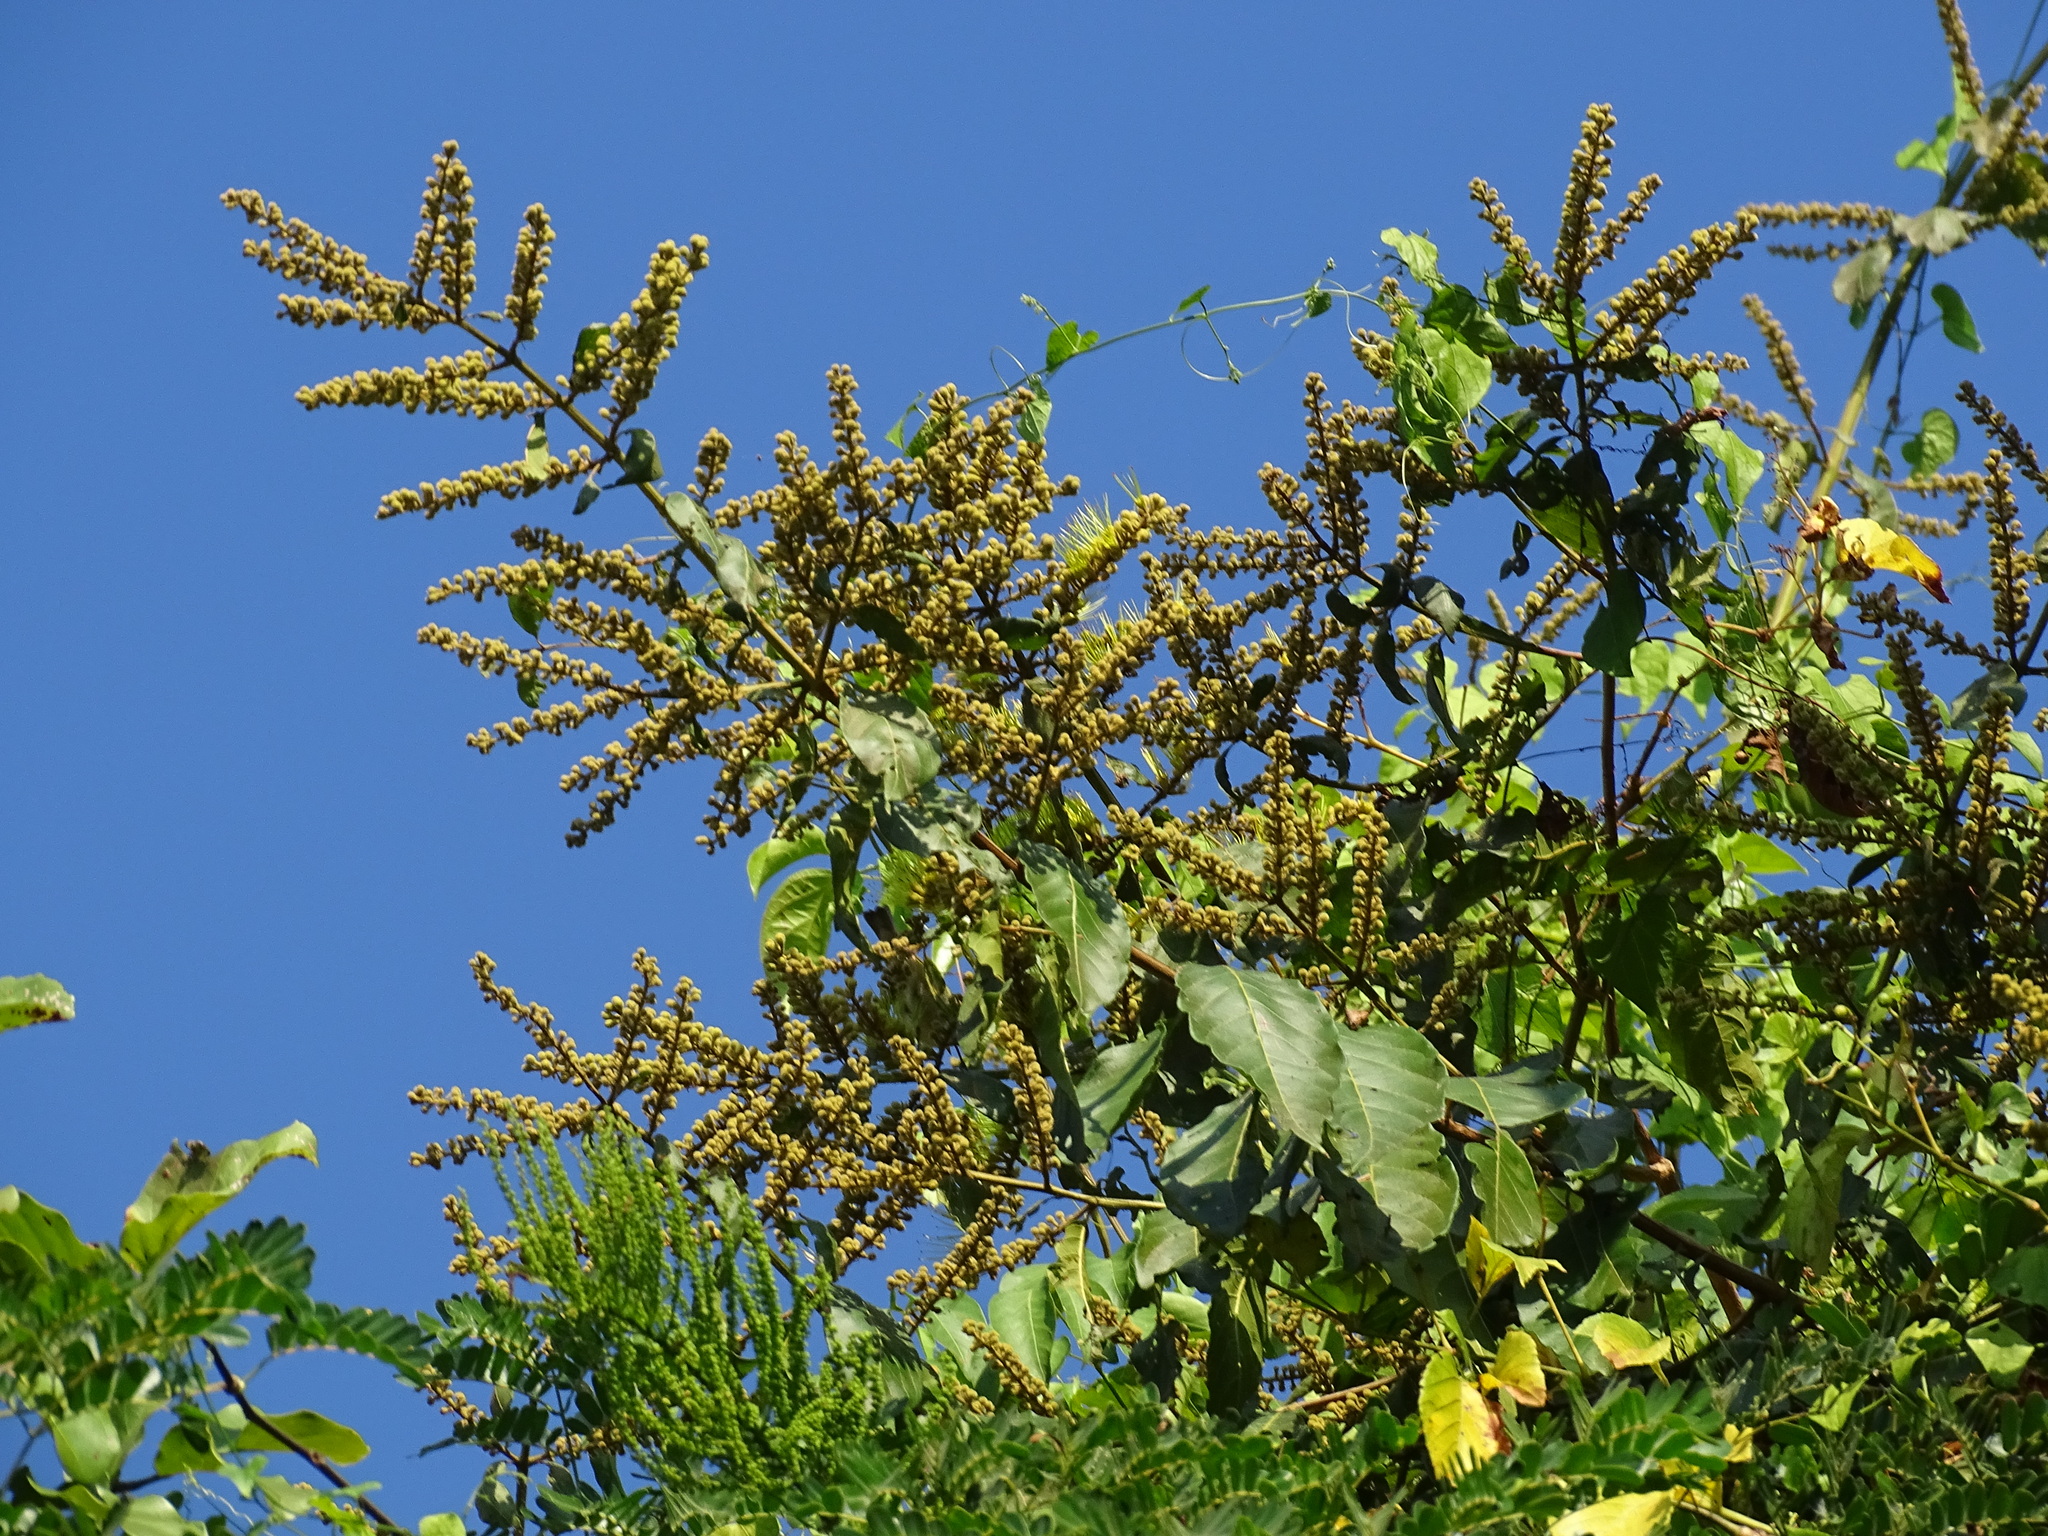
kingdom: Plantae
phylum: Tracheophyta
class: Magnoliopsida
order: Myrtales
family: Combretaceae
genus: Combretum
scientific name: Combretum fruticosum
